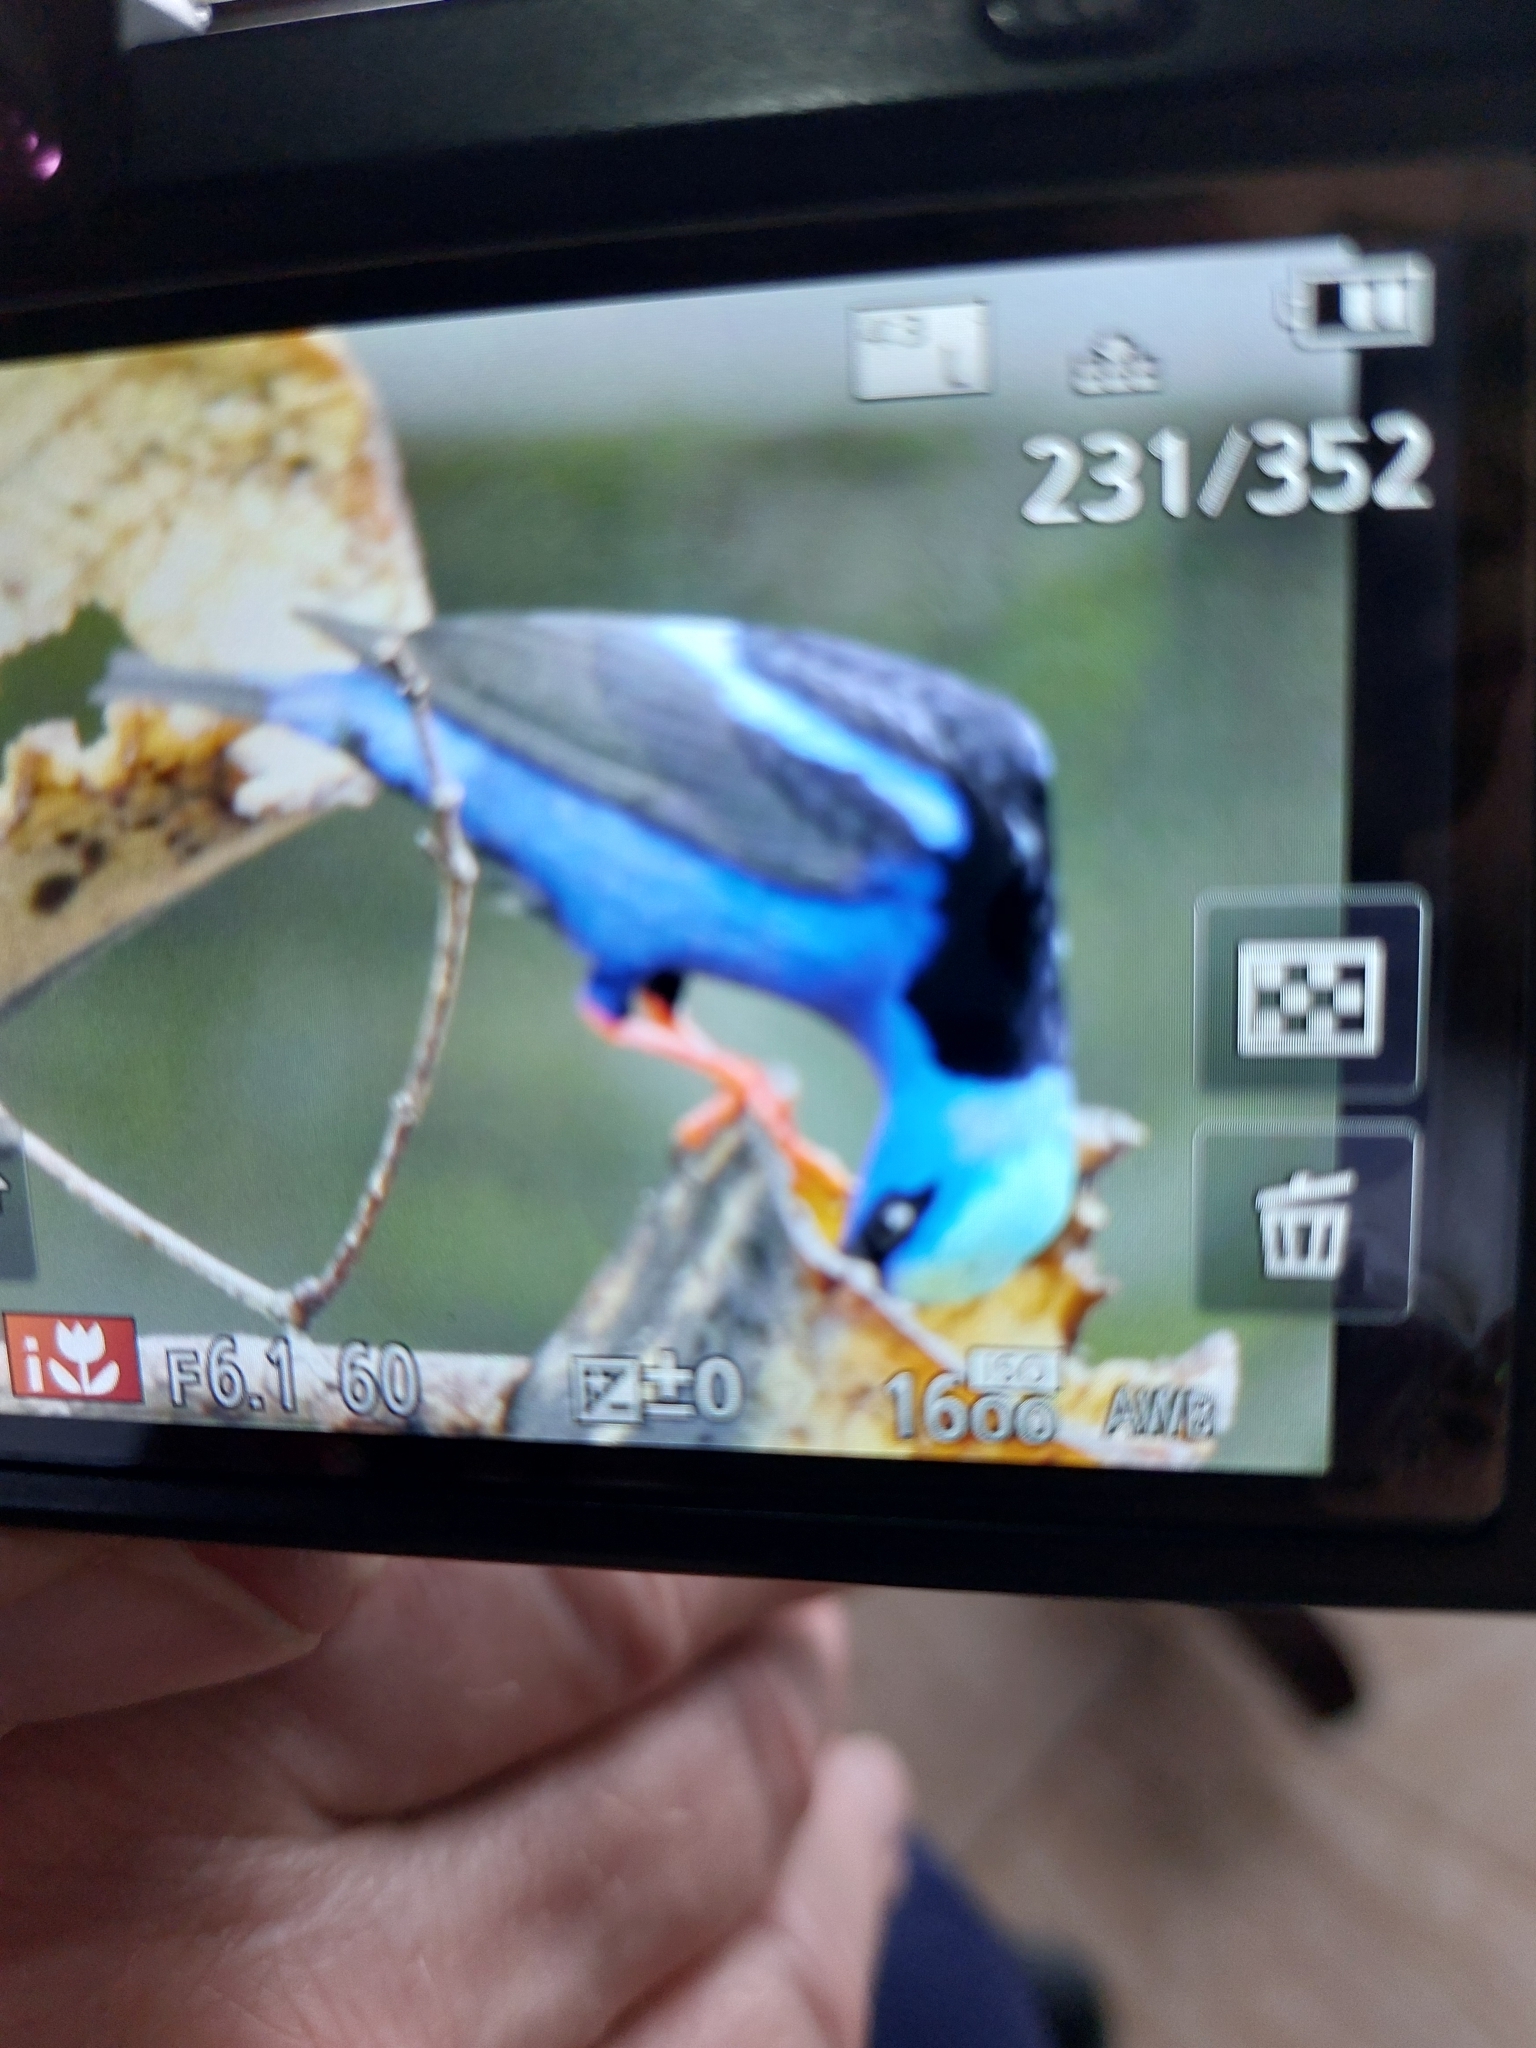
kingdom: Animalia
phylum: Chordata
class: Aves
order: Passeriformes
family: Thraupidae
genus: Cyanerpes
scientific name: Cyanerpes cyaneus
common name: Red-legged honeycreeper
